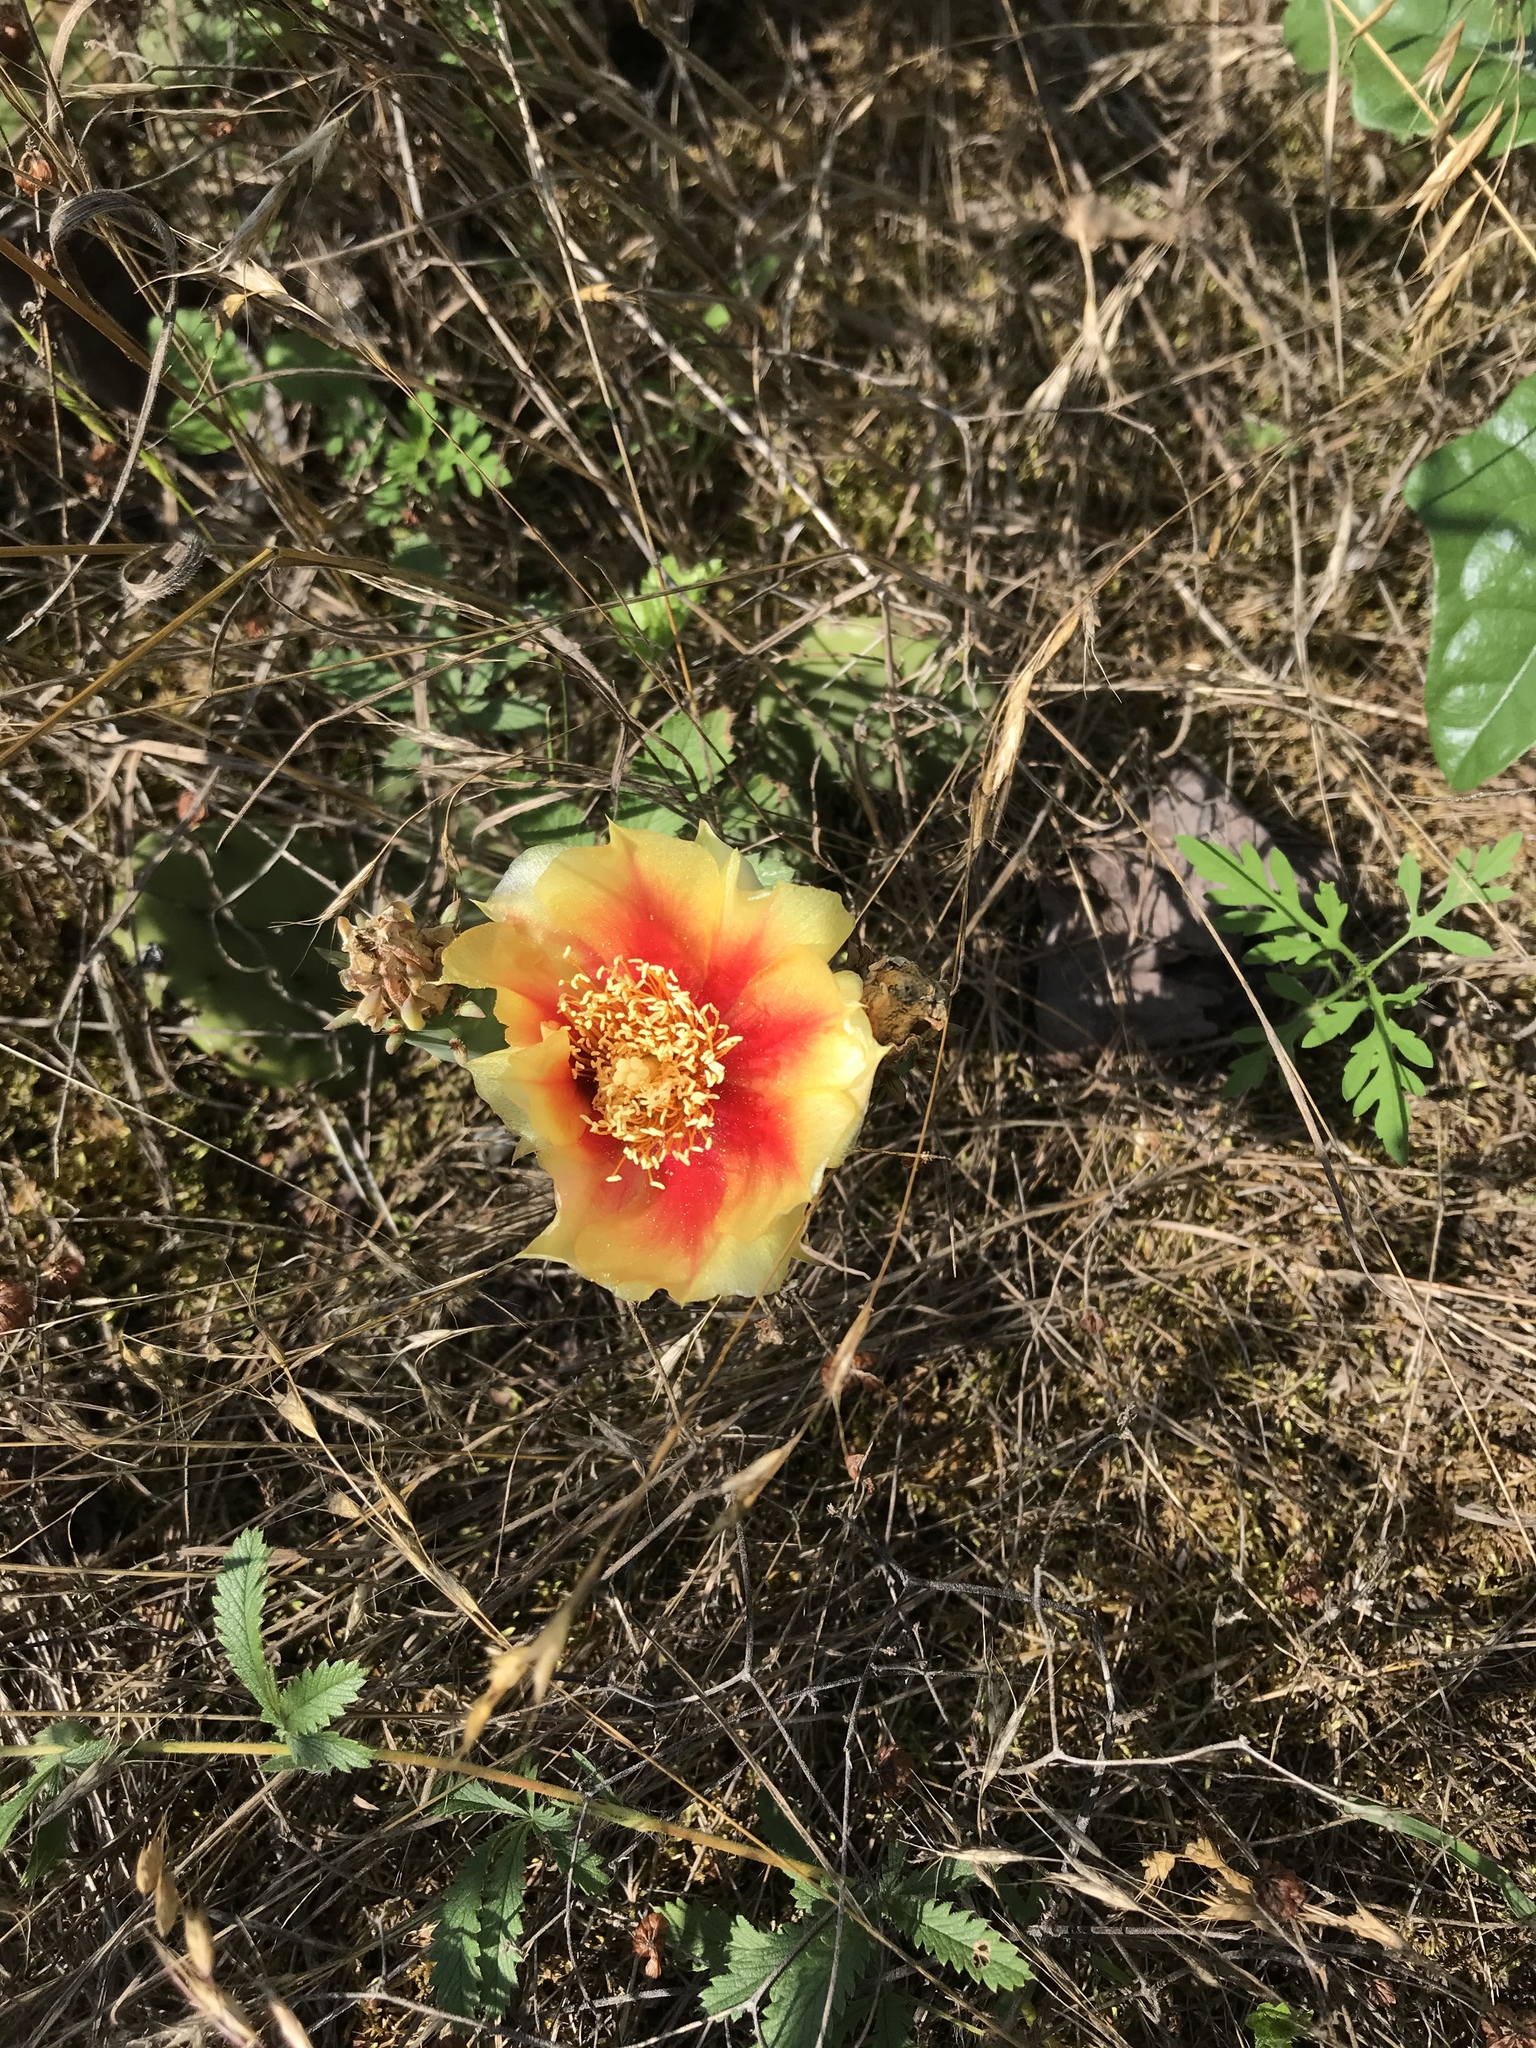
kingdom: Plantae
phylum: Tracheophyta
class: Magnoliopsida
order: Caryophyllales
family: Cactaceae
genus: Opuntia
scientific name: Opuntia humifusa
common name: Eastern prickly-pear
